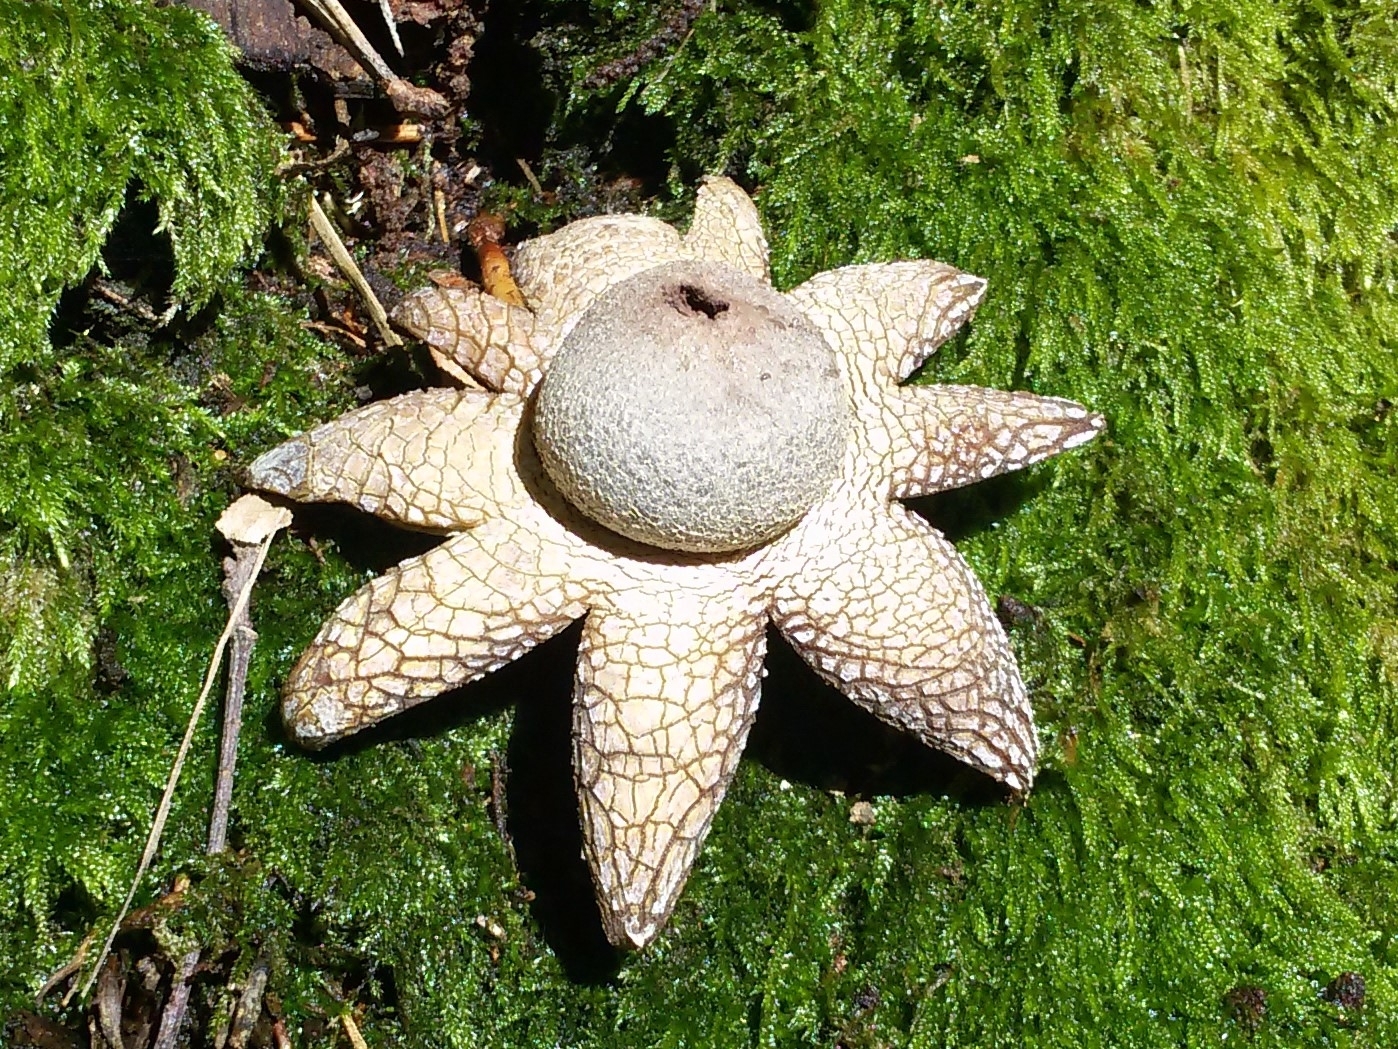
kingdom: Fungi
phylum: Basidiomycota
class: Agaricomycetes
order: Boletales
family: Diplocystidiaceae
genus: Astraeus
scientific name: Astraeus hygrometricus
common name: Barometer earthstar
